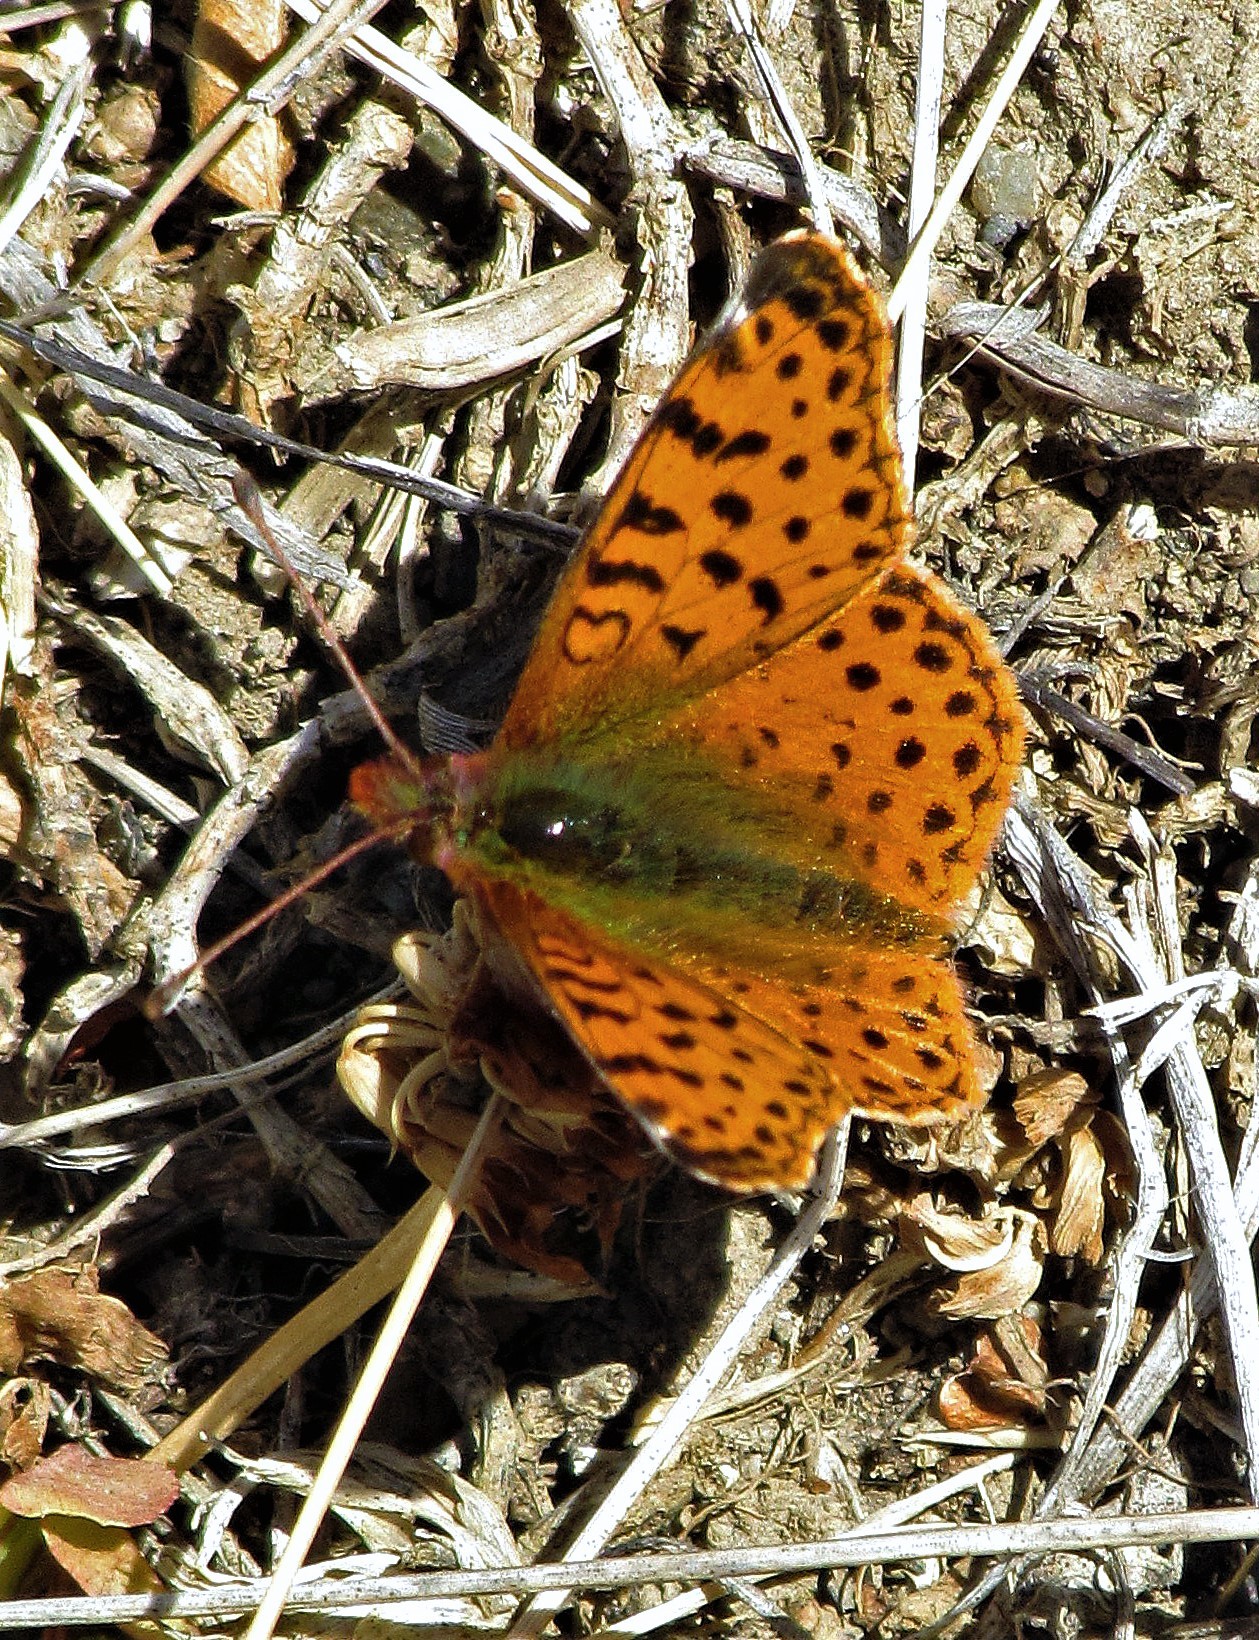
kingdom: Animalia
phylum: Arthropoda
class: Insecta
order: Lepidoptera
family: Nymphalidae
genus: Issoria
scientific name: Issoria Yramea cytheris
